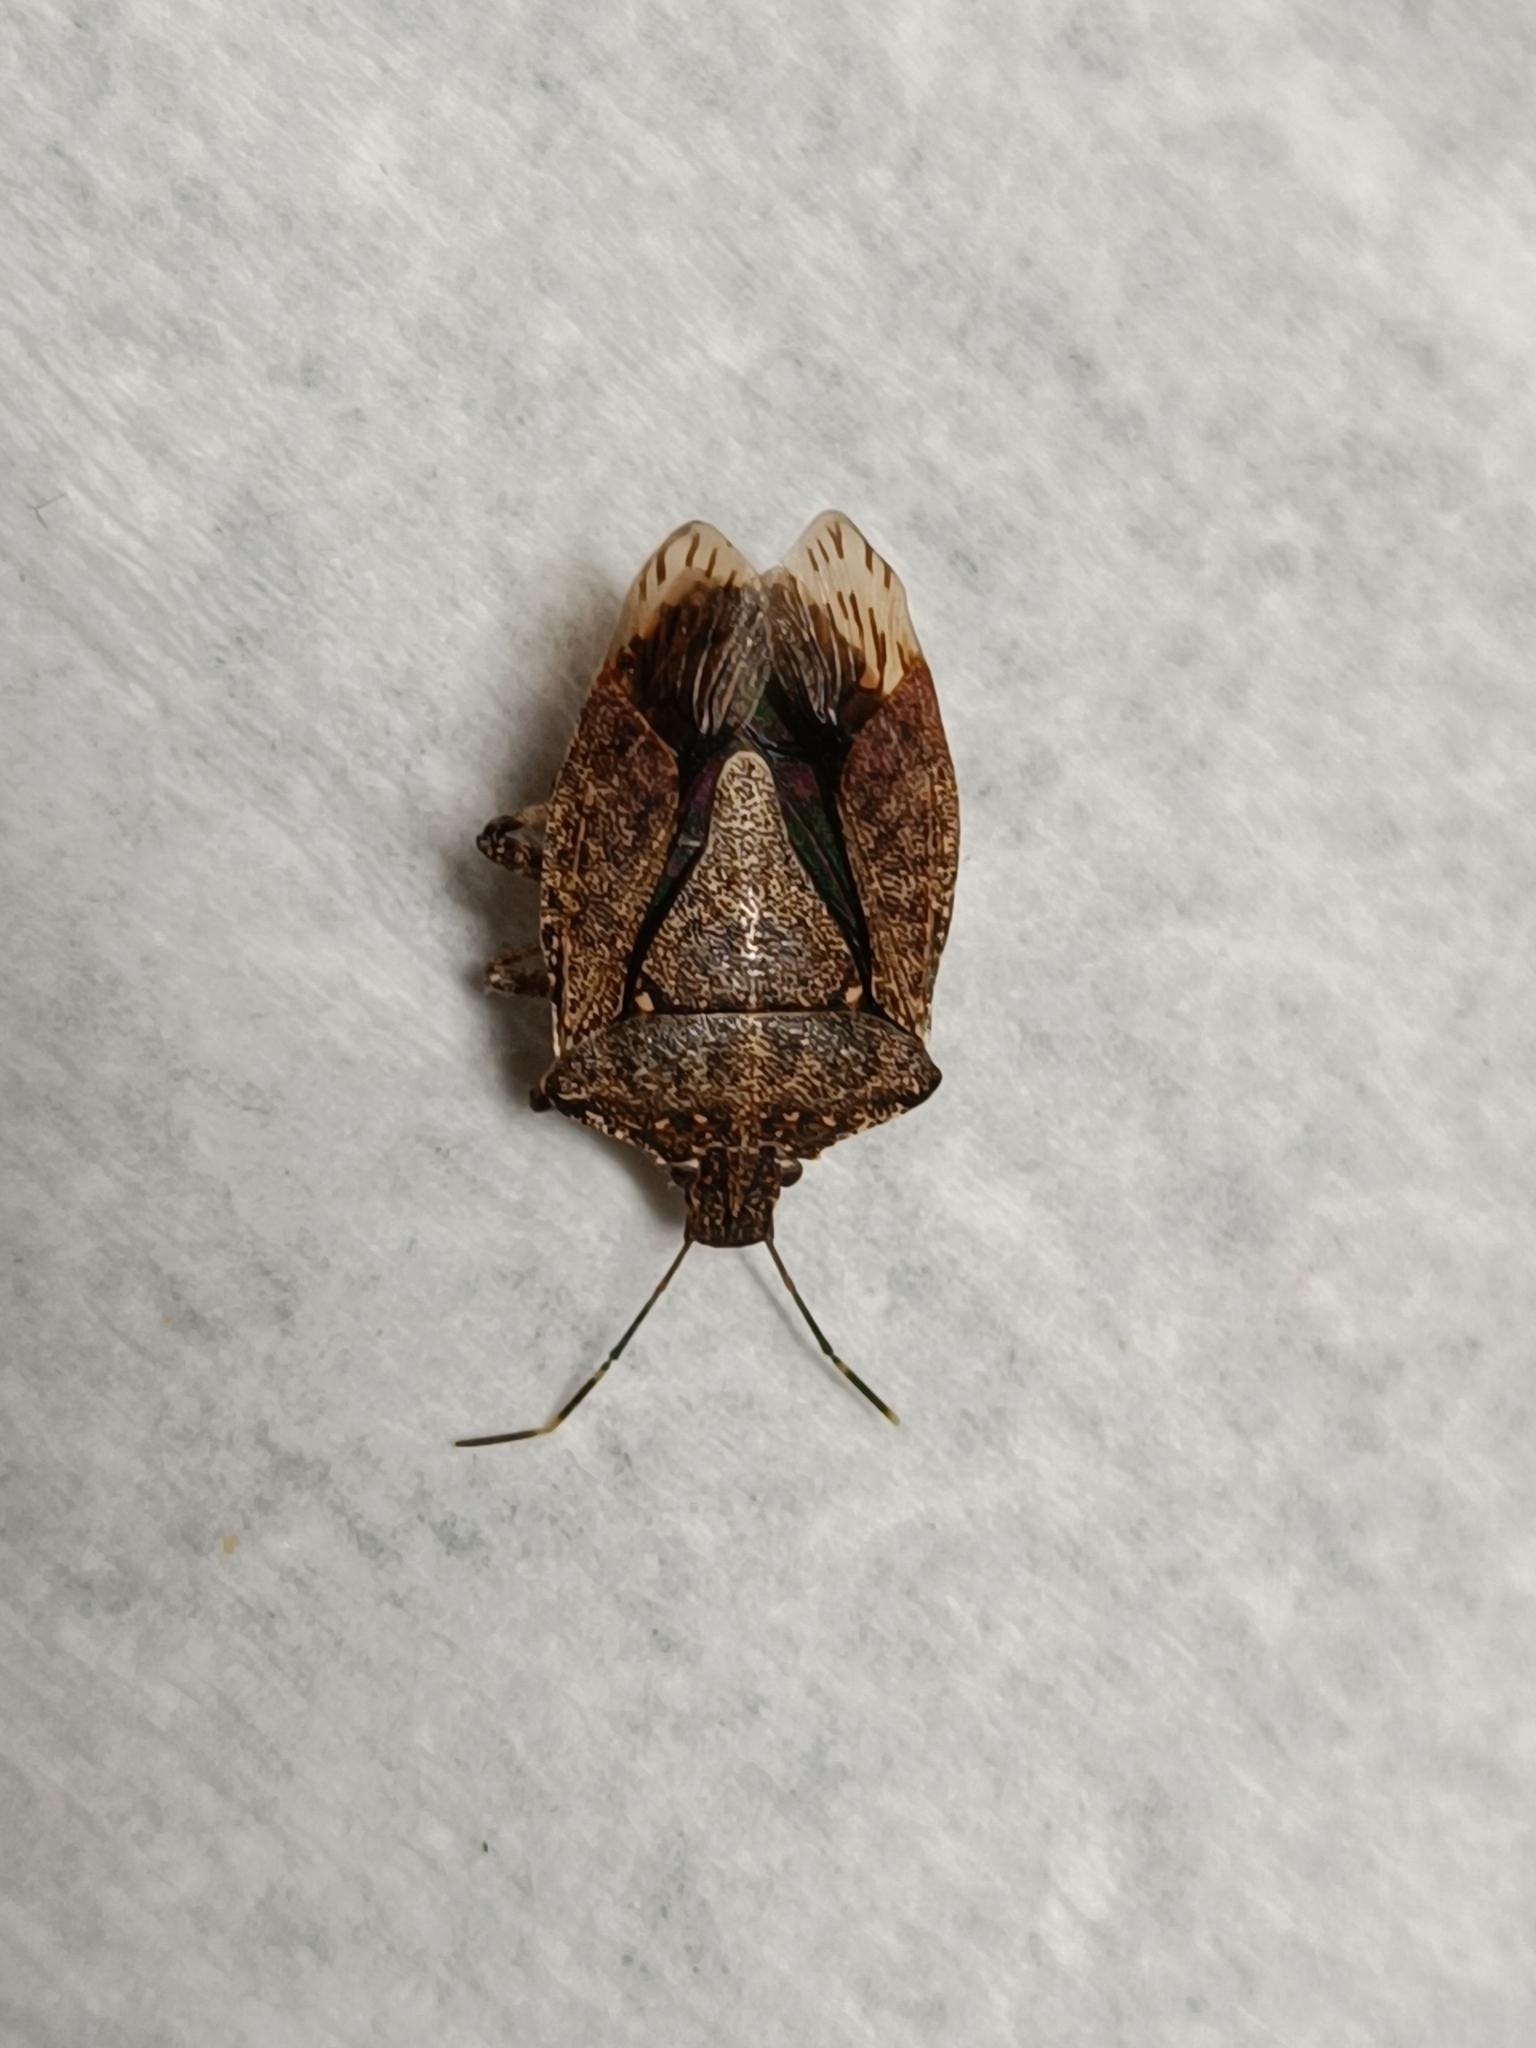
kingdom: Animalia
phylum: Arthropoda
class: Insecta
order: Hemiptera
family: Pentatomidae
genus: Halyomorpha
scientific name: Halyomorpha halys
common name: Brown marmorated stink bug
